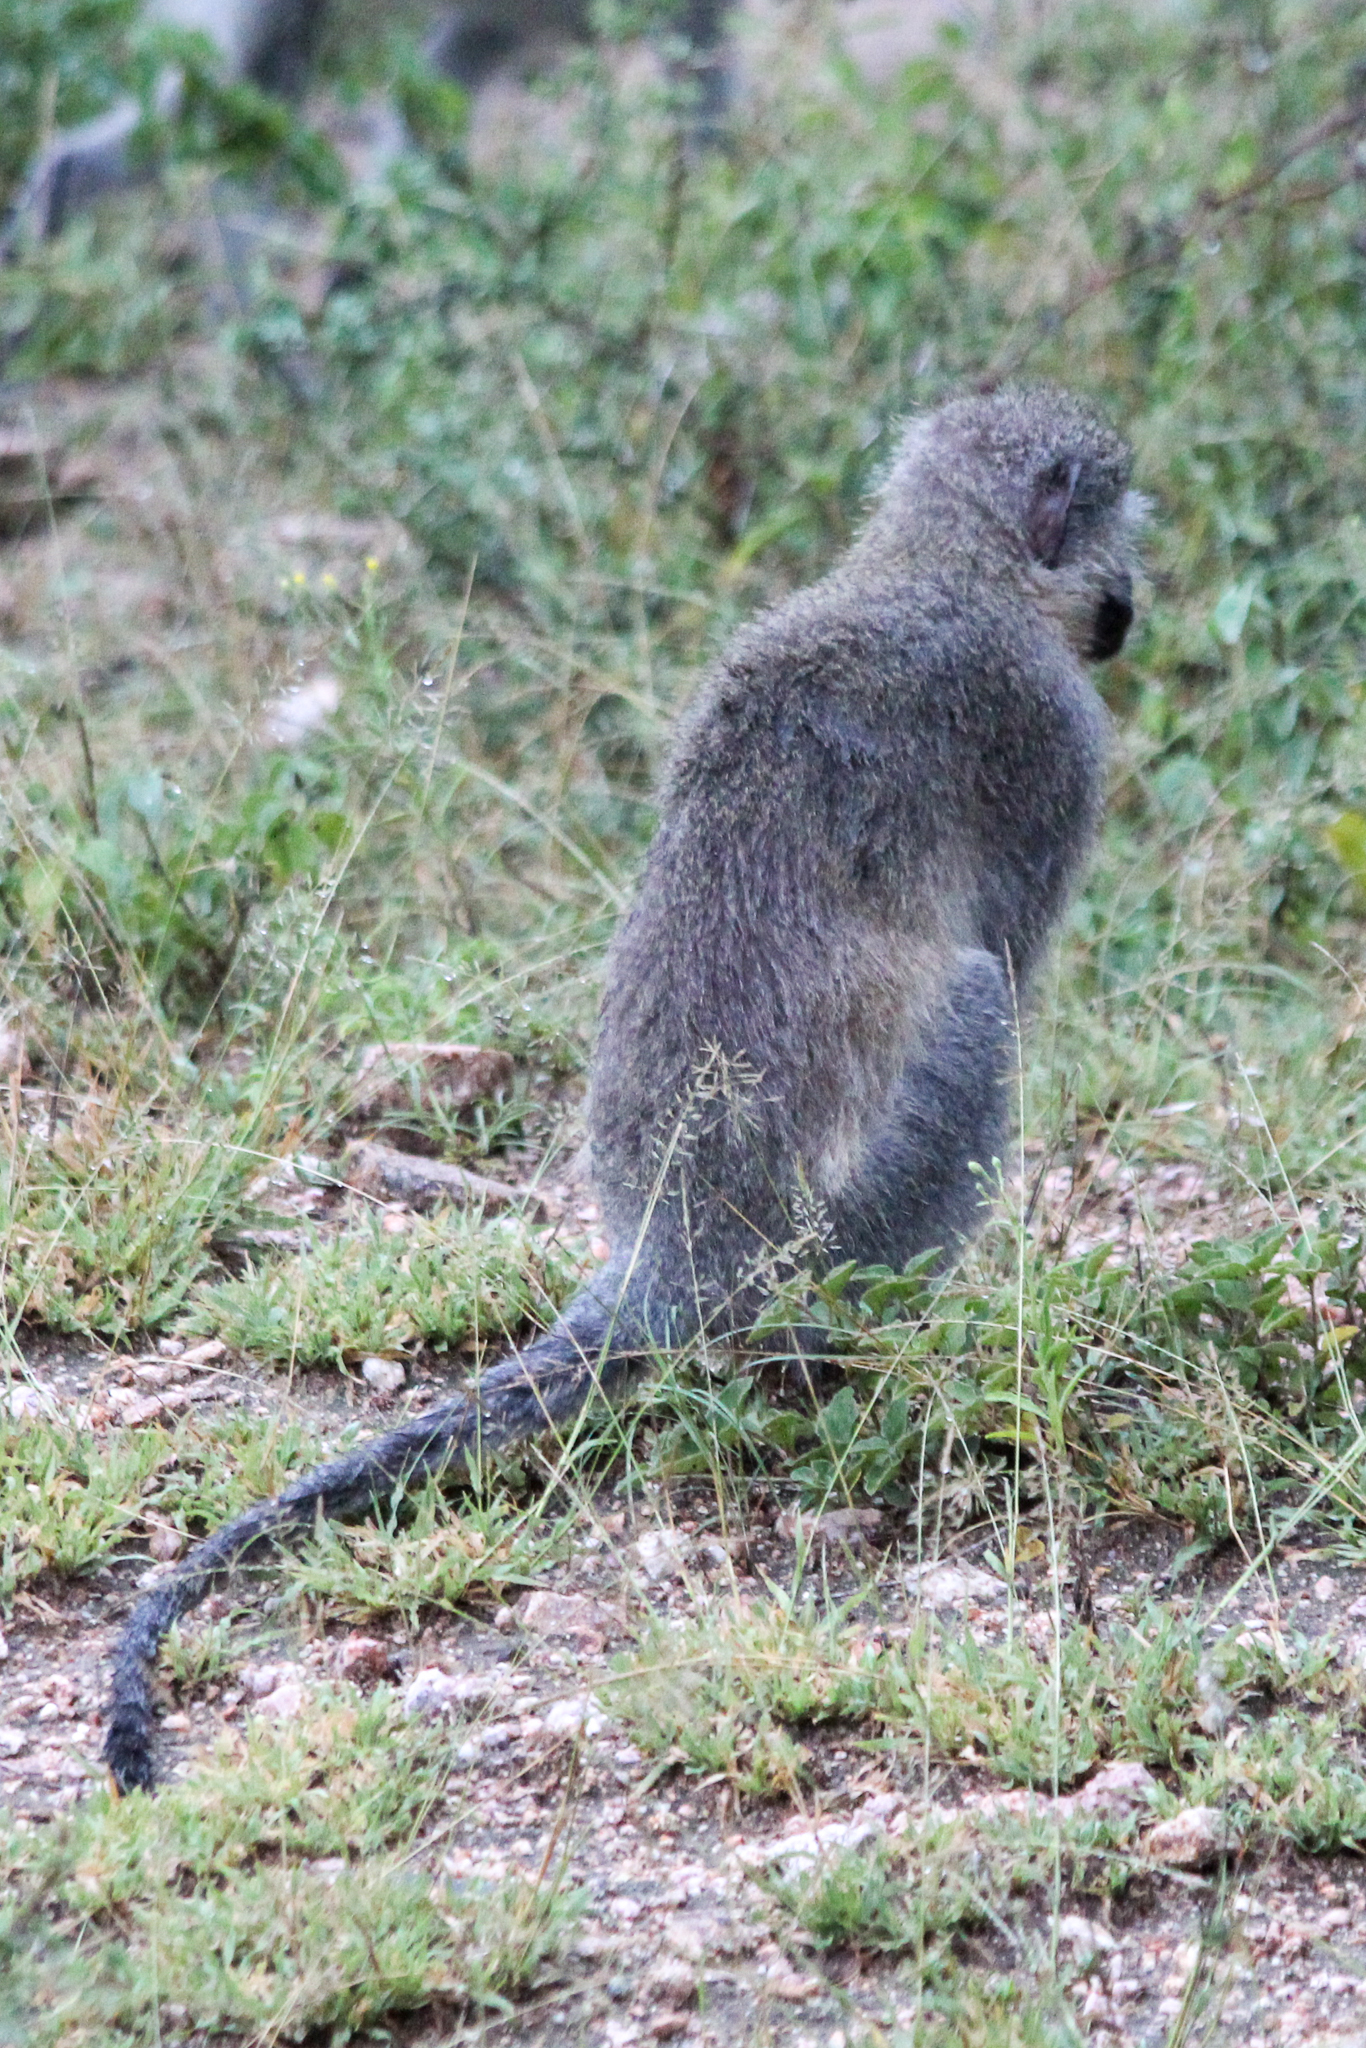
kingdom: Animalia
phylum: Chordata
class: Mammalia
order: Primates
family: Cercopithecidae
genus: Chlorocebus
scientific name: Chlorocebus pygerythrus
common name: Vervet monkey
